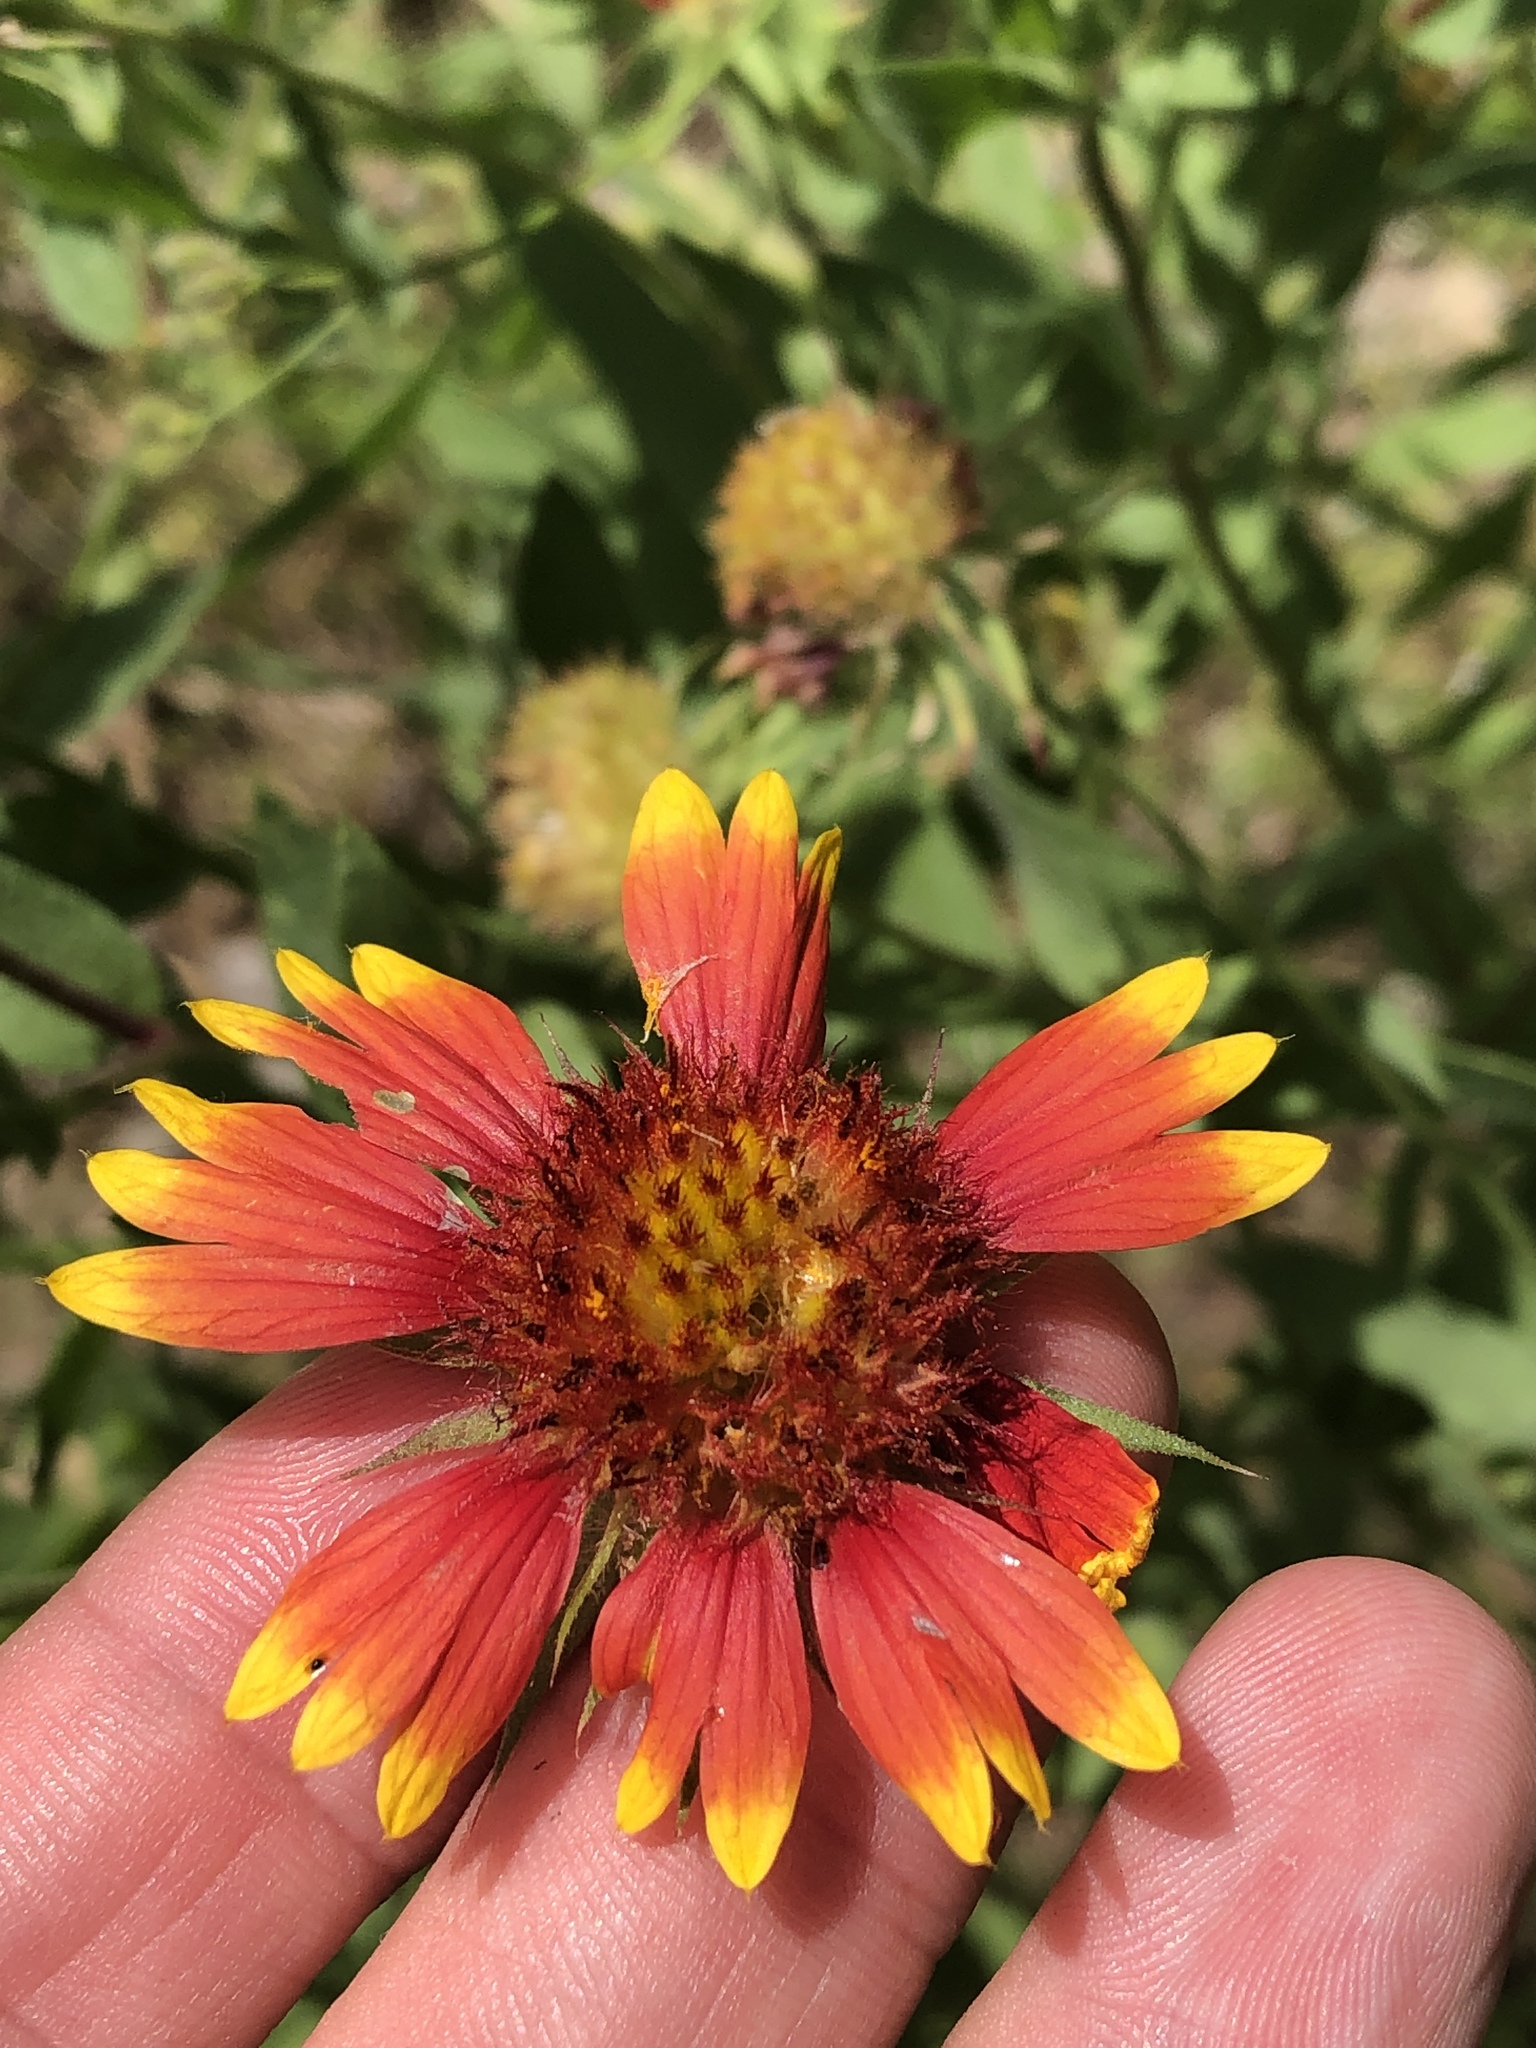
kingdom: Plantae
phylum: Tracheophyta
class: Magnoliopsida
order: Asterales
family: Asteraceae
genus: Gaillardia
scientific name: Gaillardia pulchella
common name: Firewheel
